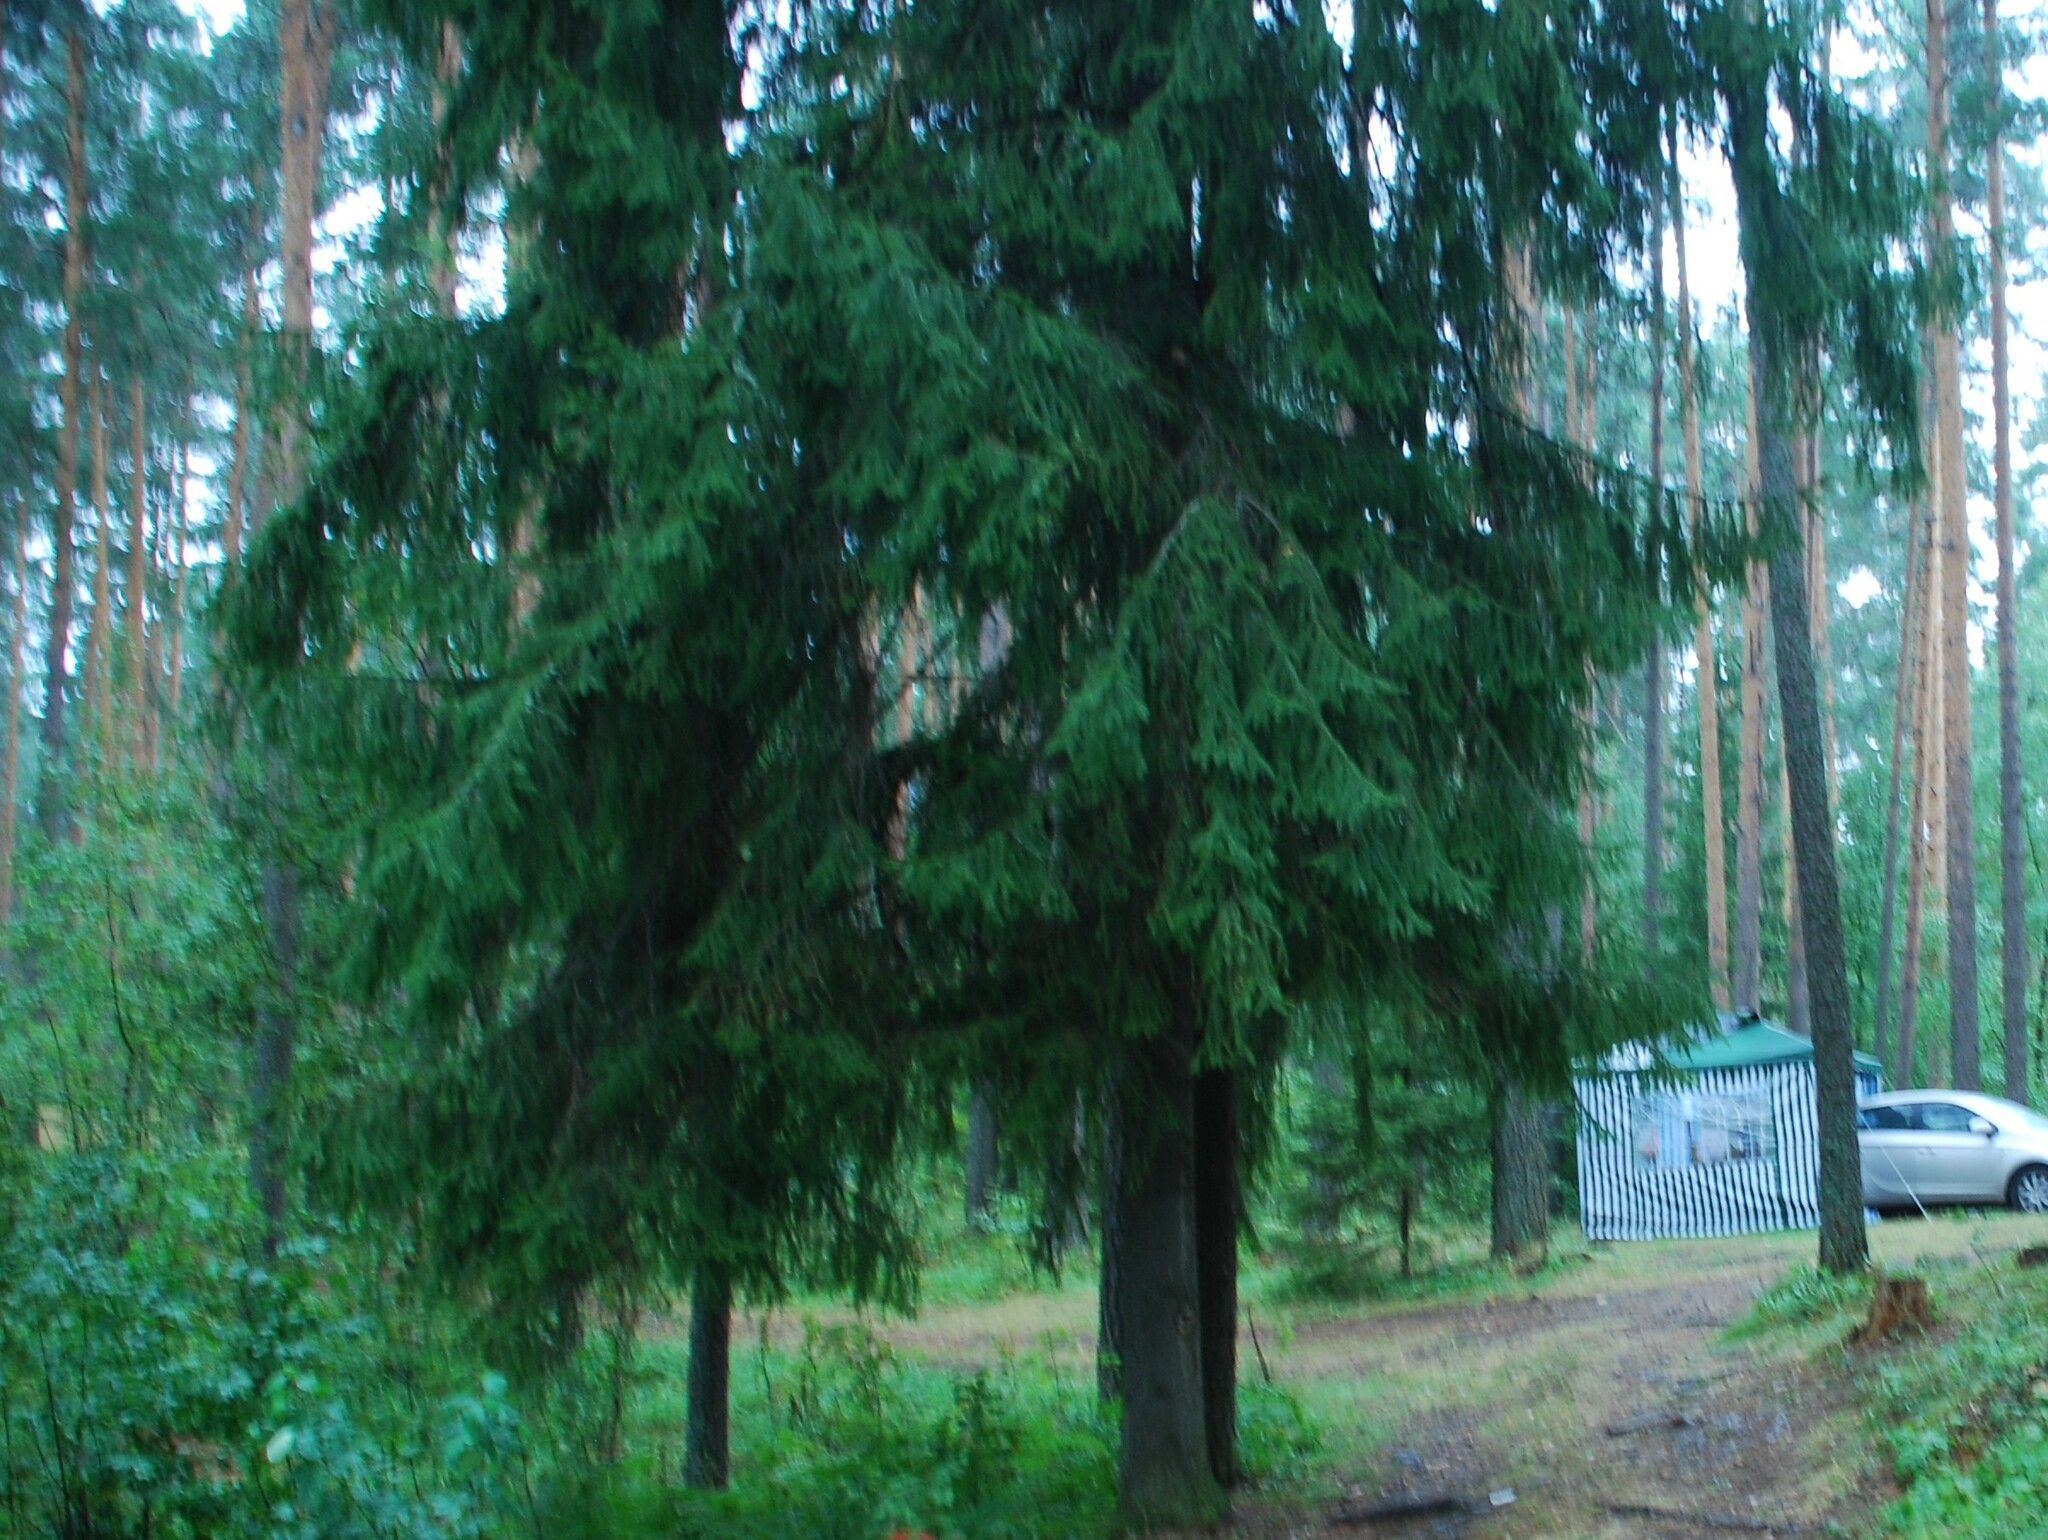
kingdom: Plantae
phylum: Tracheophyta
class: Pinopsida
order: Pinales
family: Pinaceae
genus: Picea
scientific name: Picea abies
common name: Norway spruce
